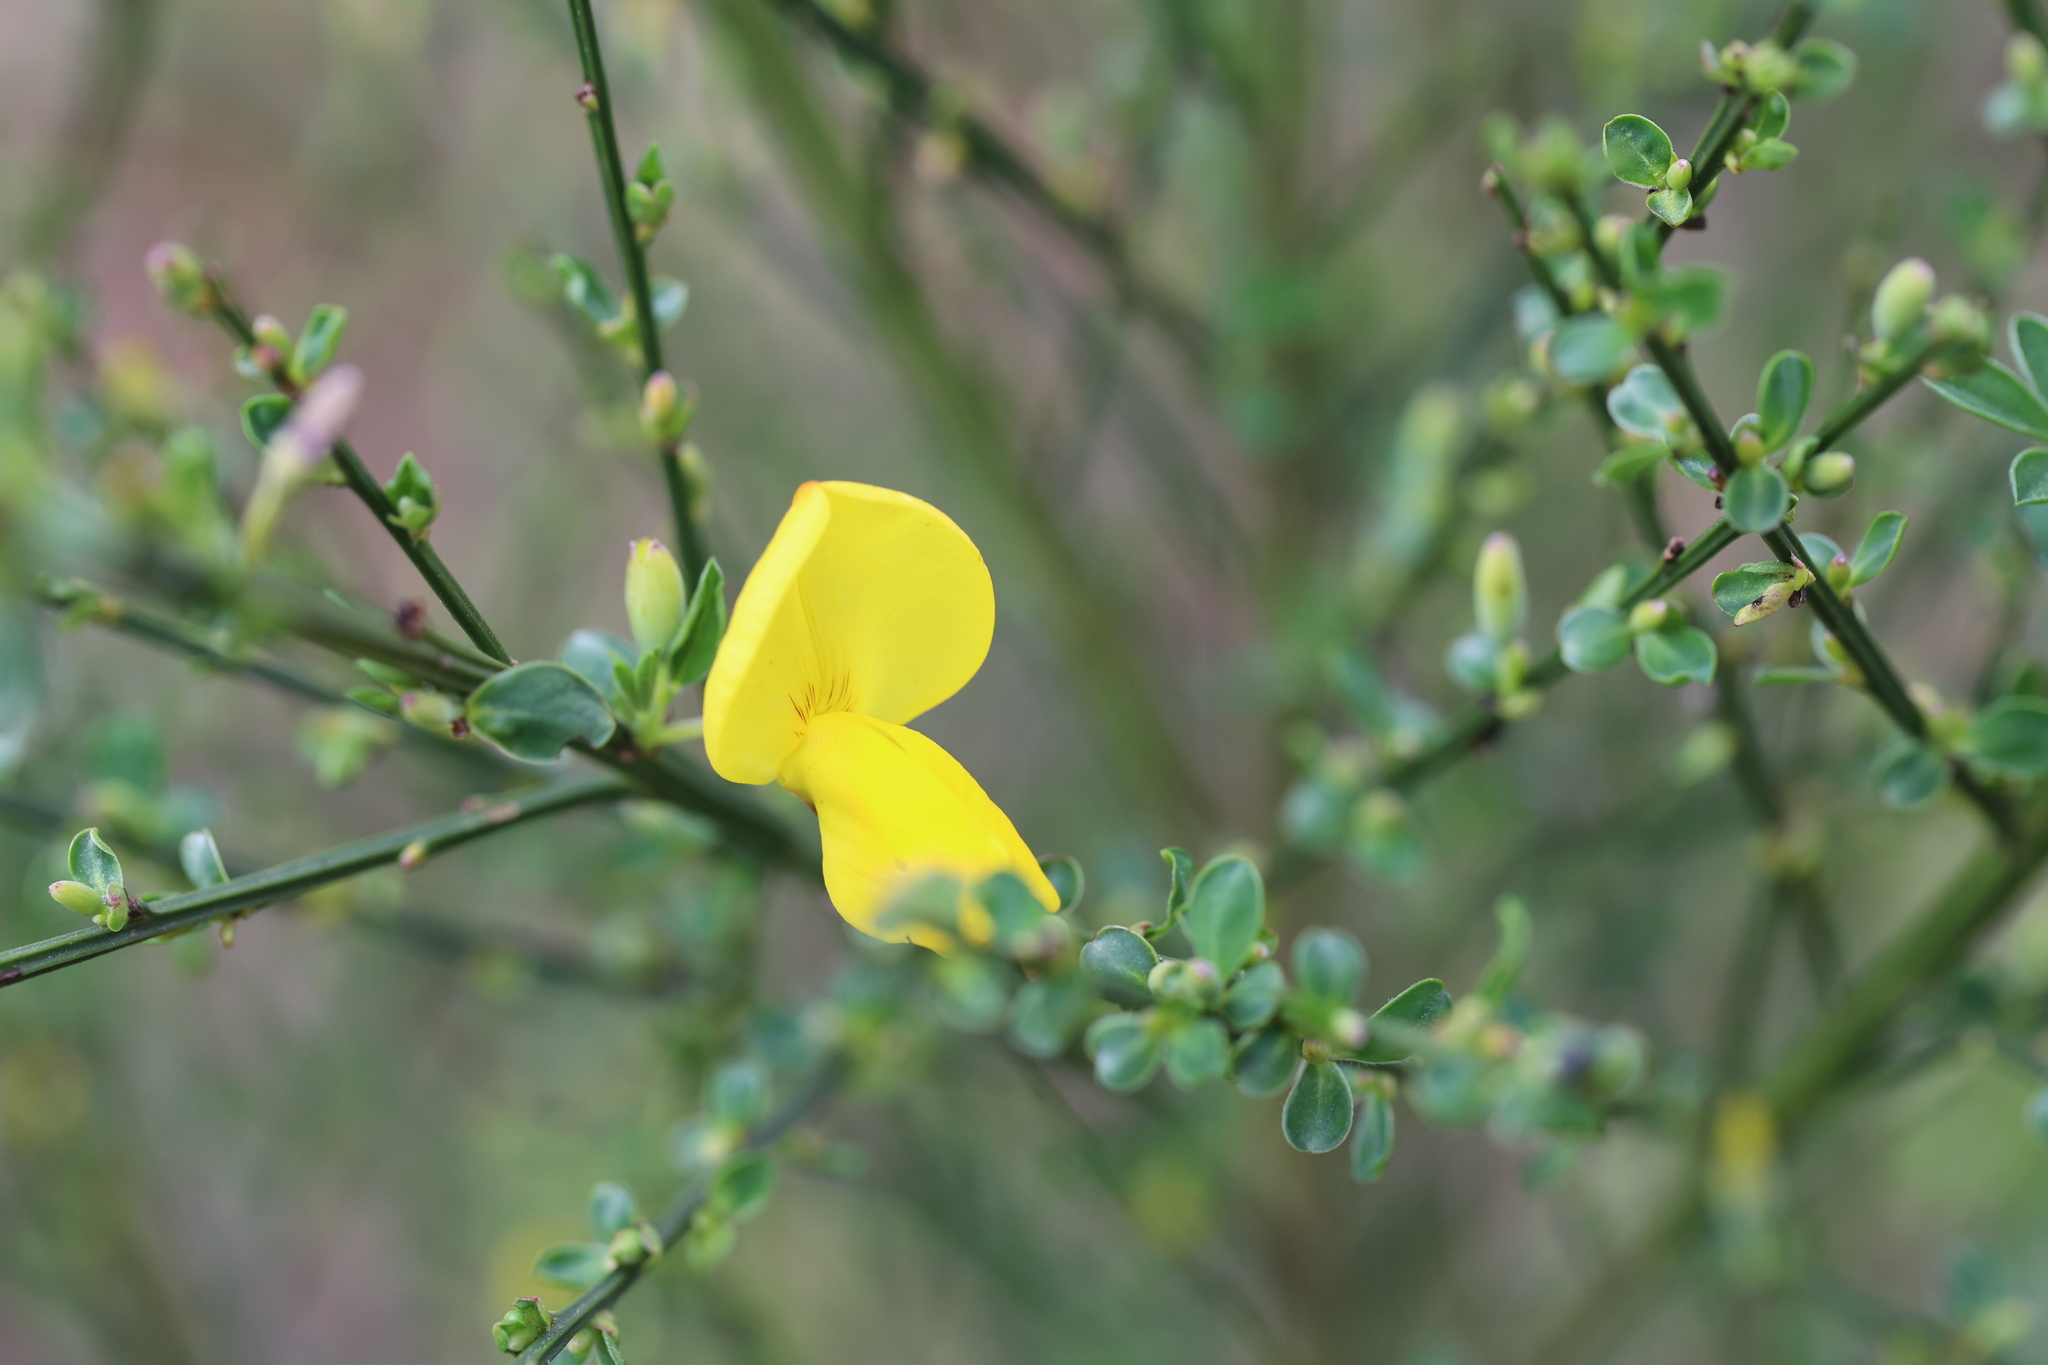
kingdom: Plantae
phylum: Tracheophyta
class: Magnoliopsida
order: Fabales
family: Fabaceae
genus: Cytisus
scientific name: Cytisus scoparius
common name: Scotch broom
